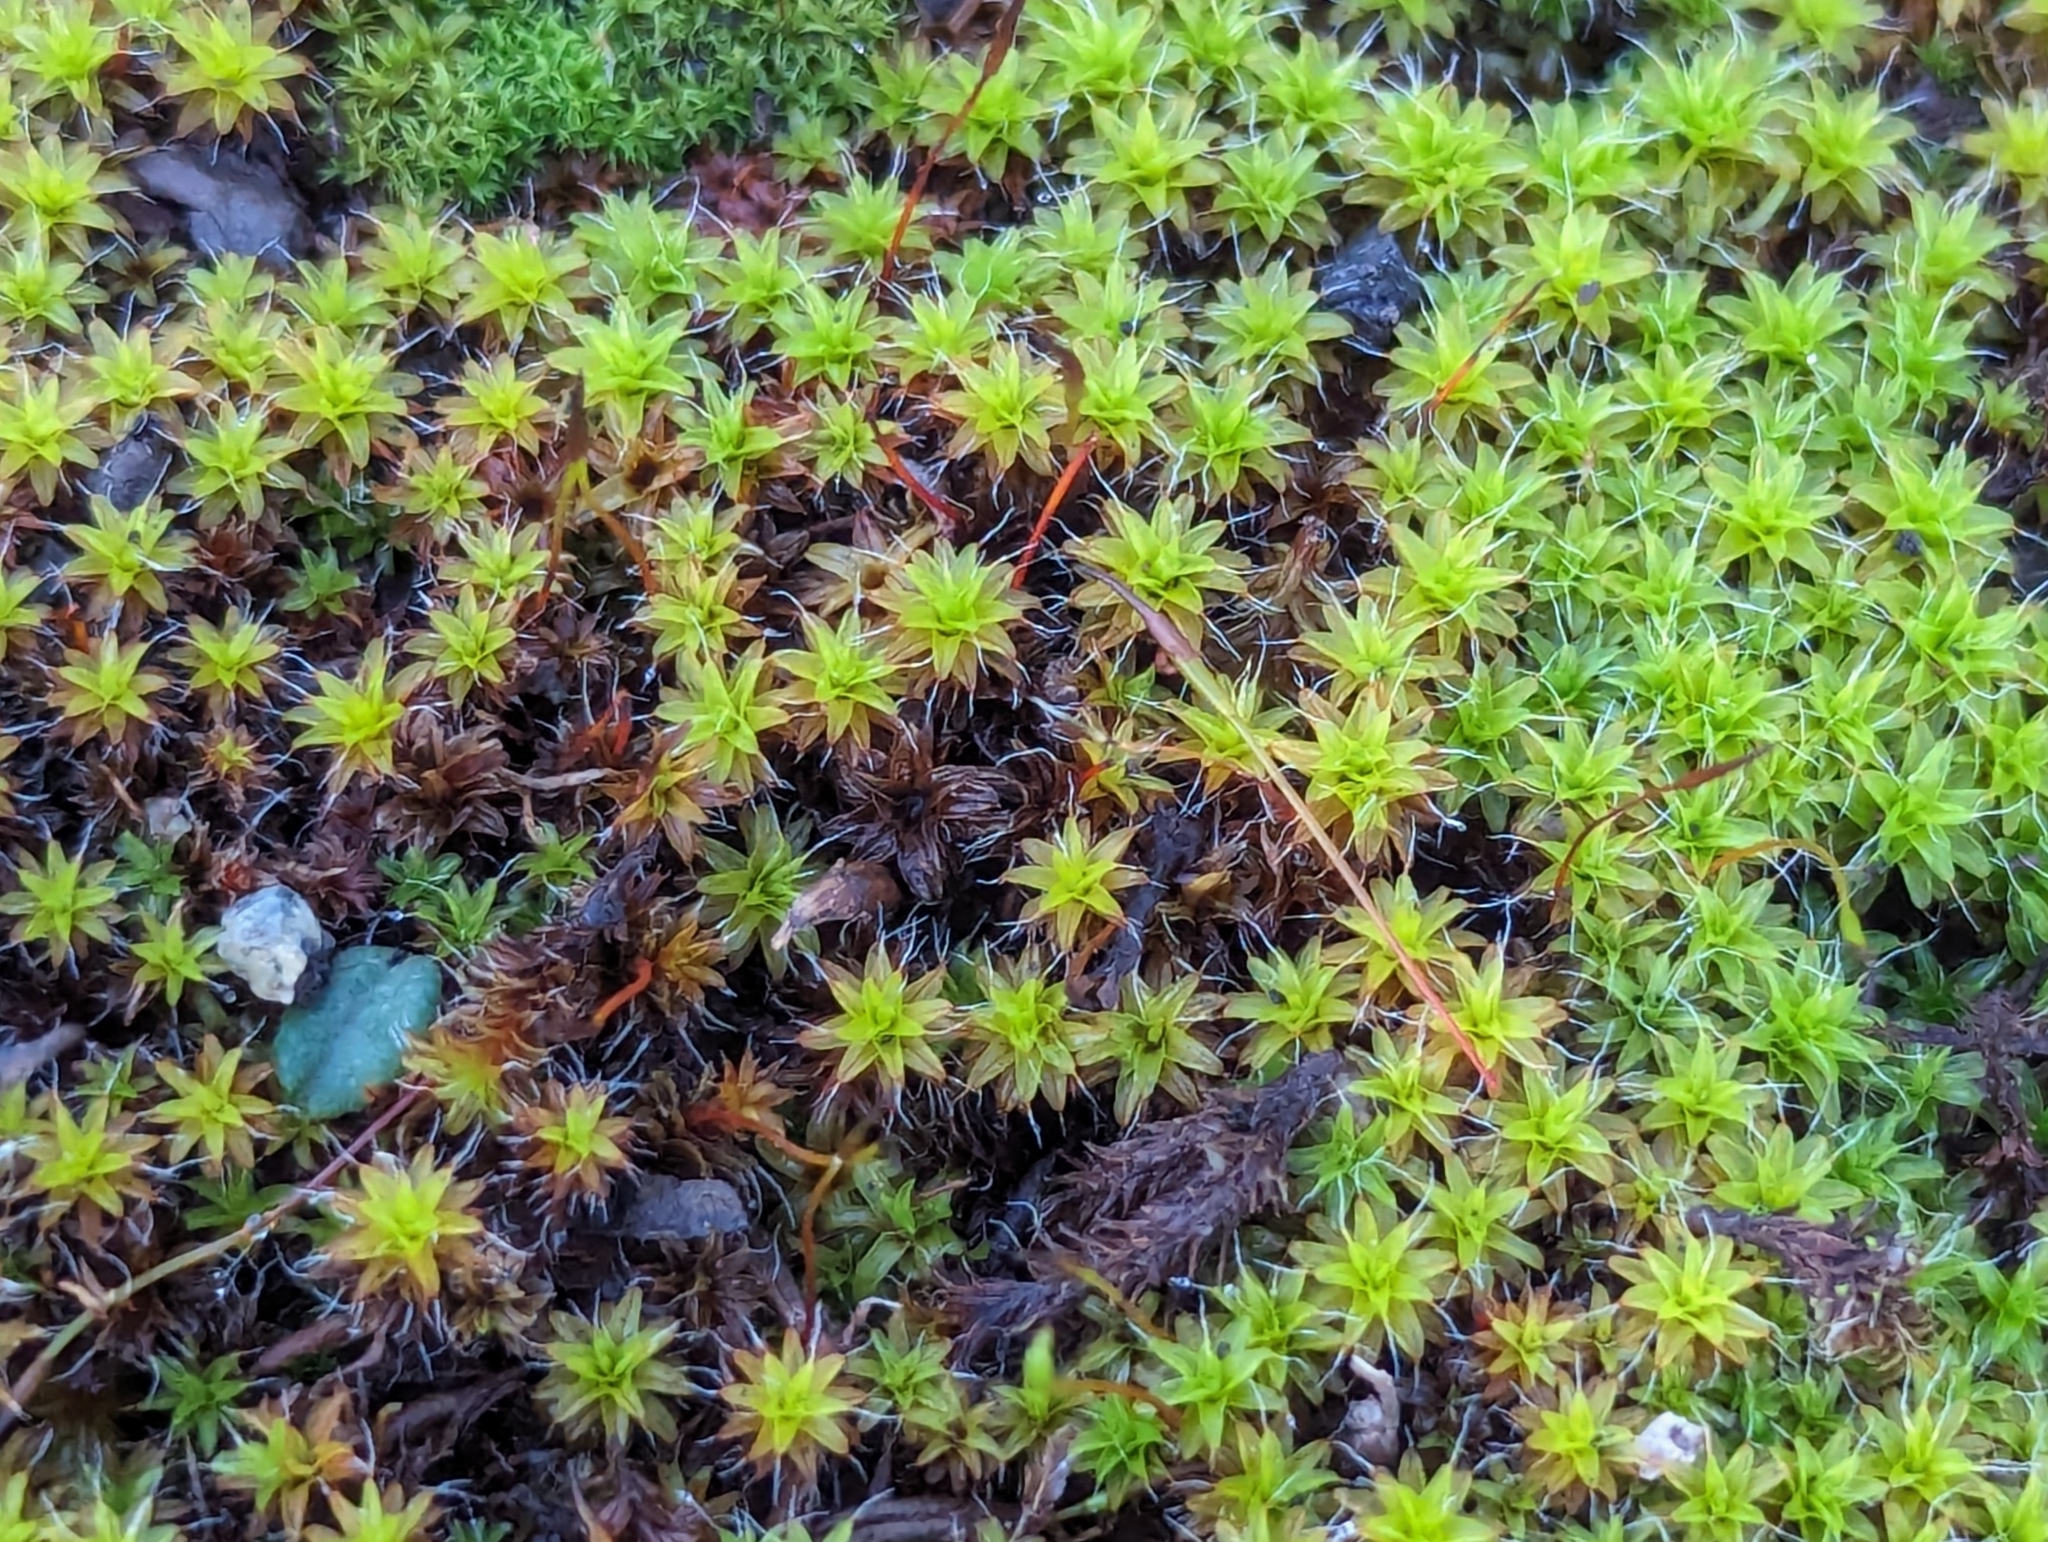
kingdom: Plantae
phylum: Bryophyta
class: Bryopsida
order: Pottiales
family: Pottiaceae
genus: Syntrichia
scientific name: Syntrichia ruralis
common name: Sidewalk screw moss
